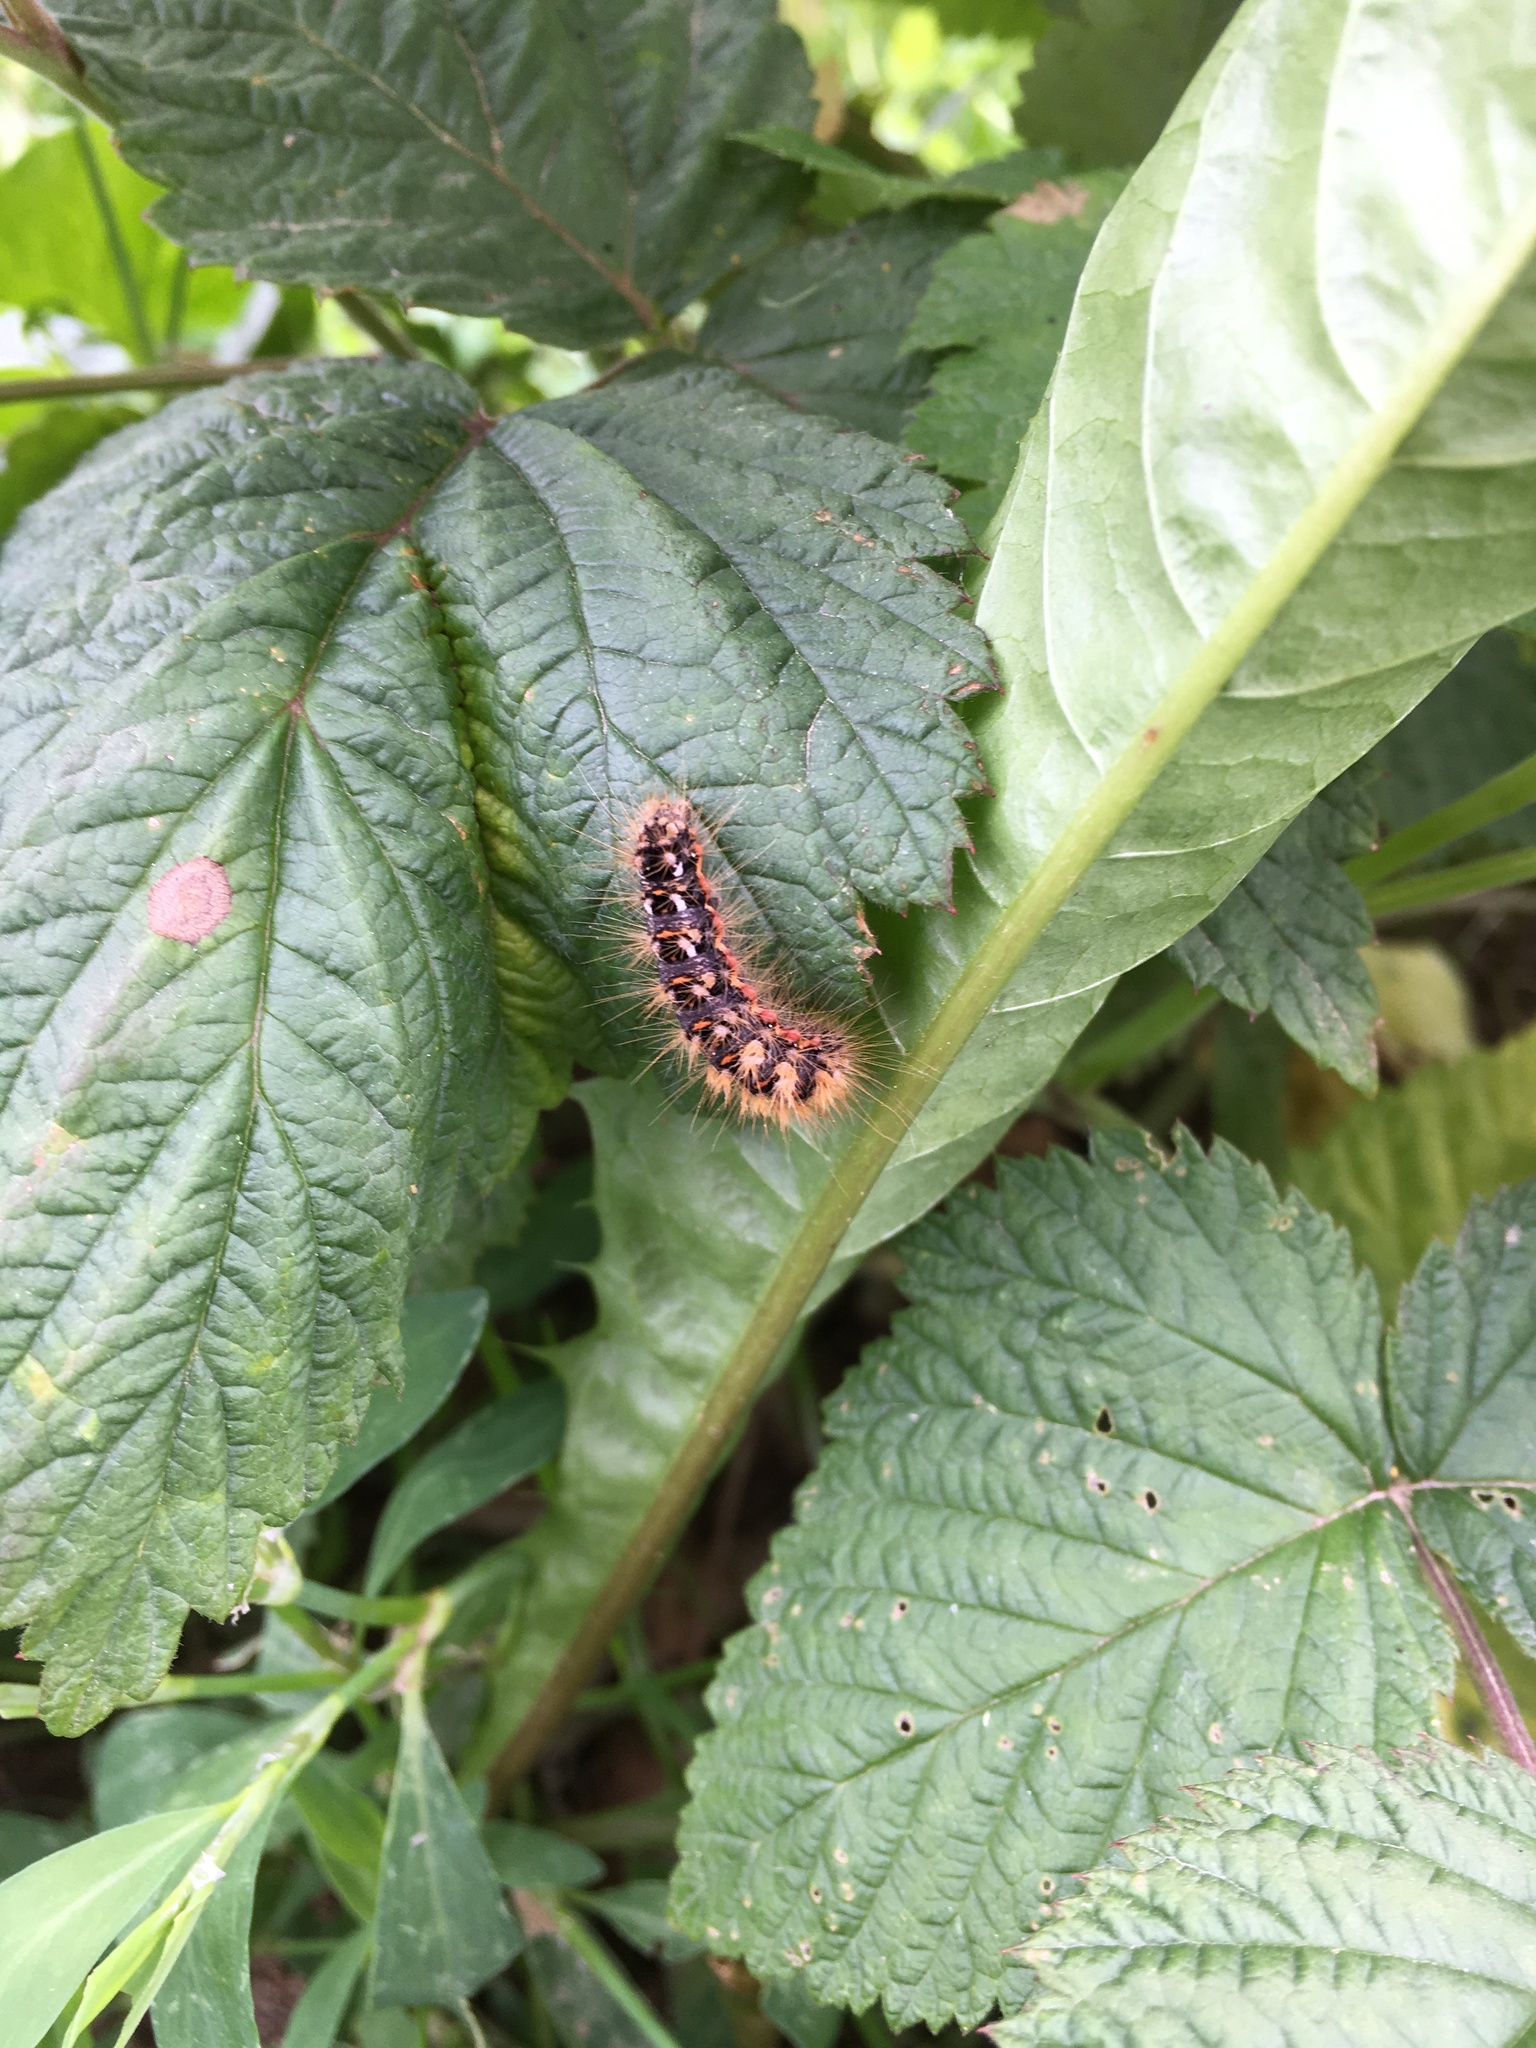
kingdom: Animalia
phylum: Arthropoda
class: Insecta
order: Lepidoptera
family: Noctuidae
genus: Acronicta
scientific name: Acronicta rumicis
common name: Knot grass
